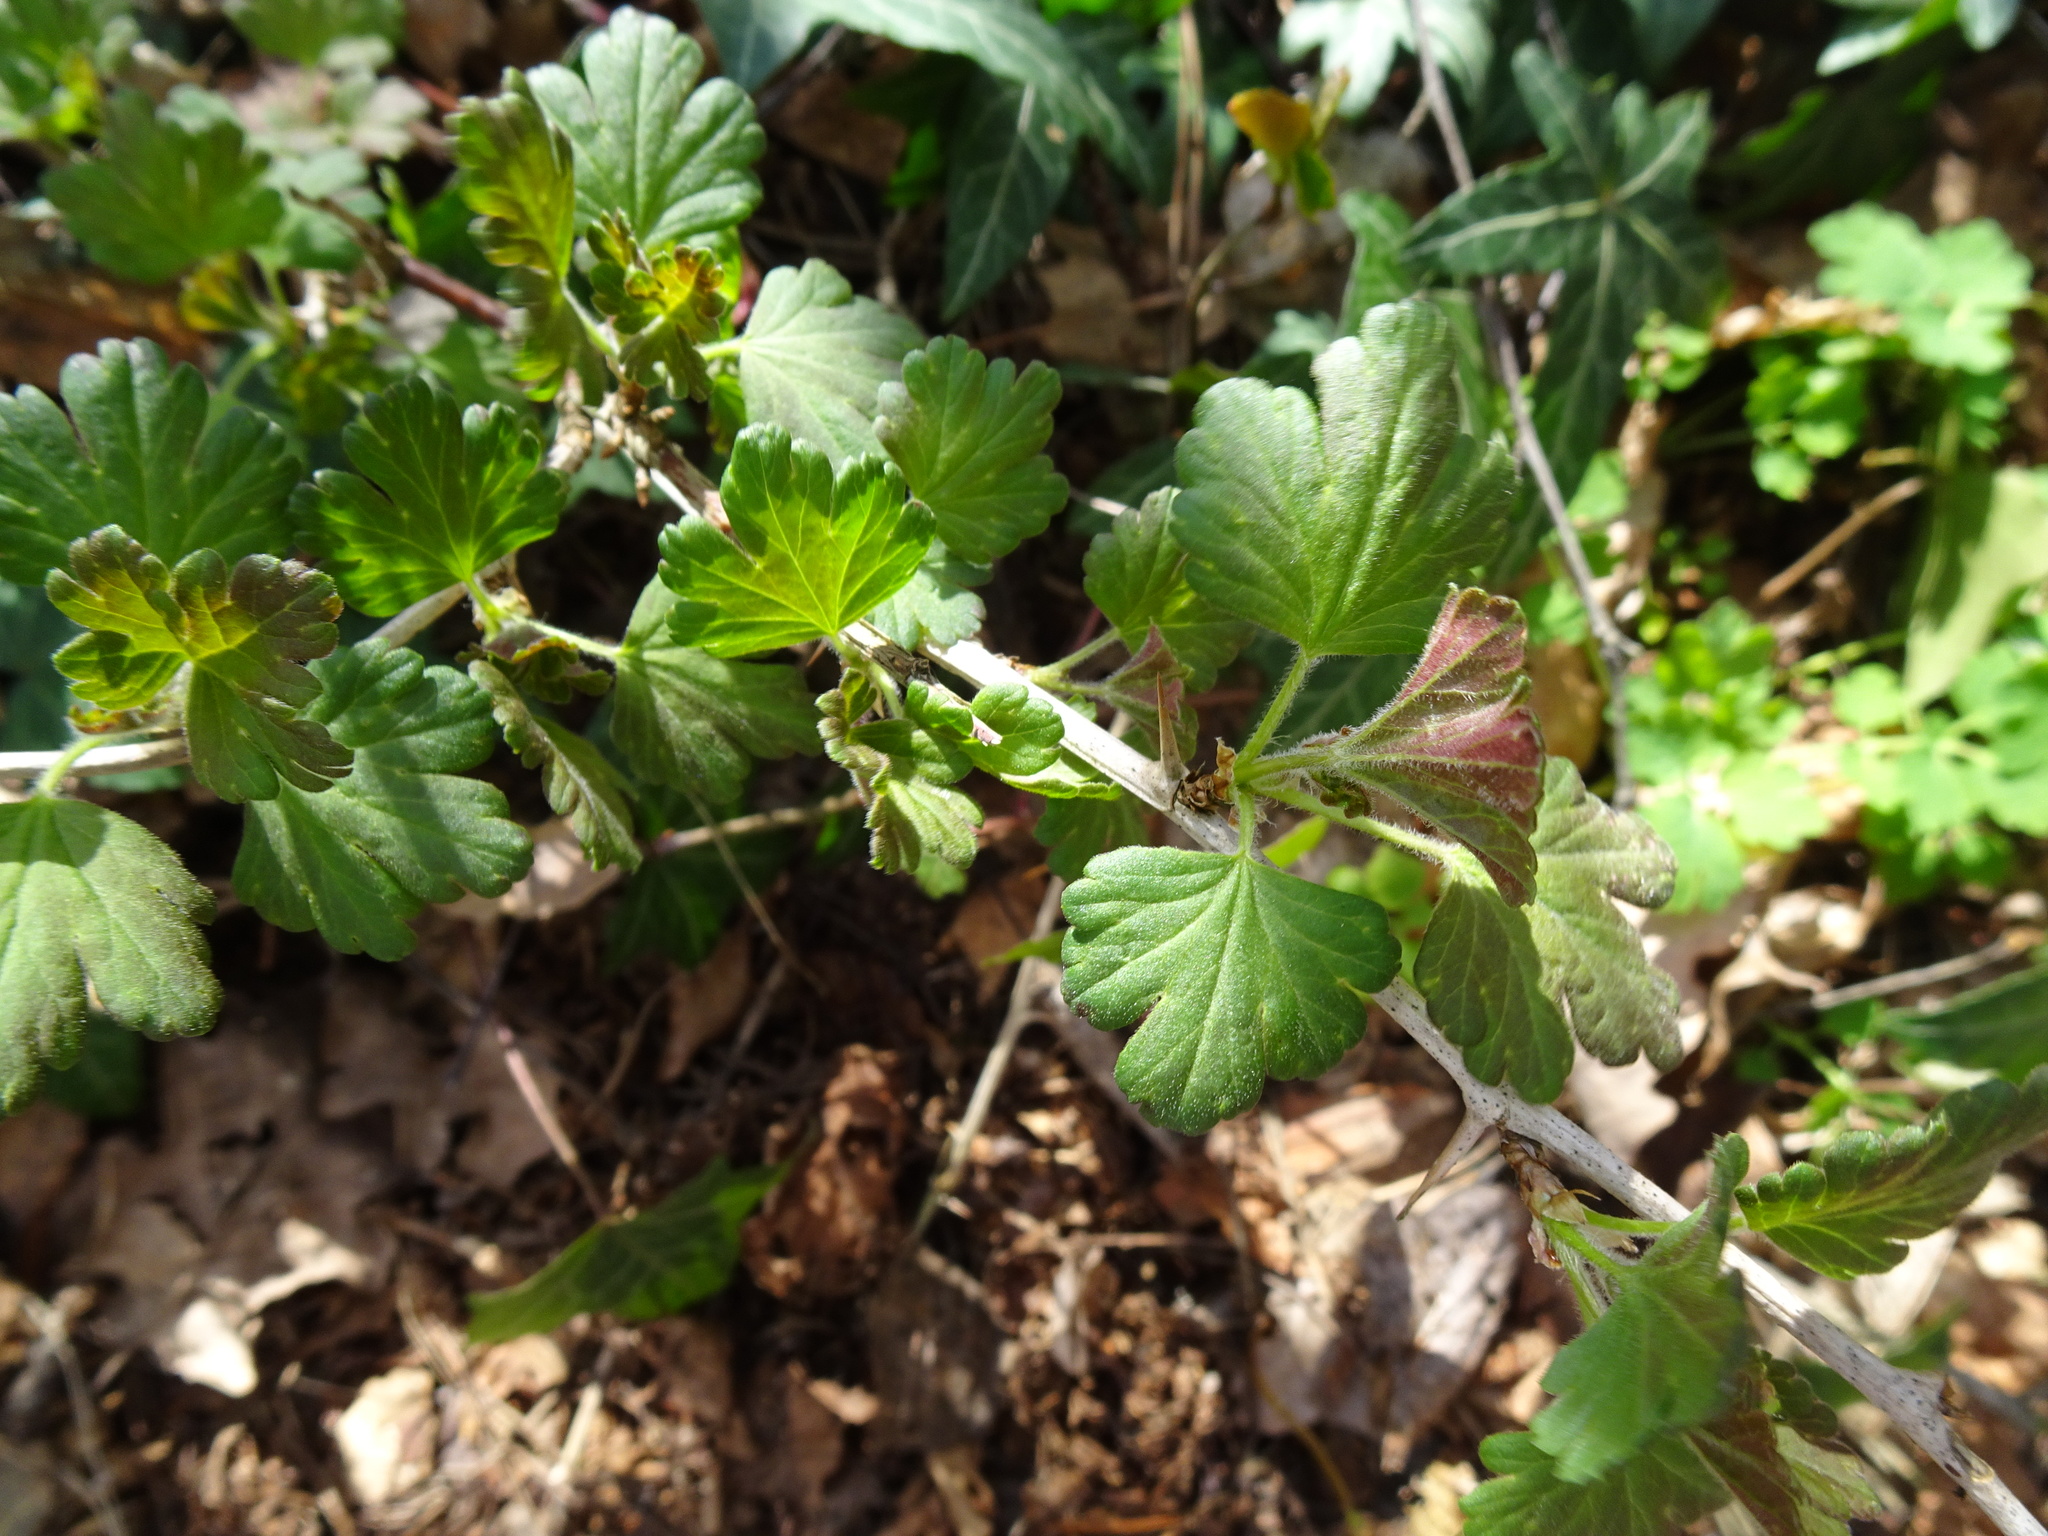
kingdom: Plantae
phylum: Tracheophyta
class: Magnoliopsida
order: Saxifragales
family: Grossulariaceae
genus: Ribes
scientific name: Ribes uva-crispa
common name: Gooseberry
